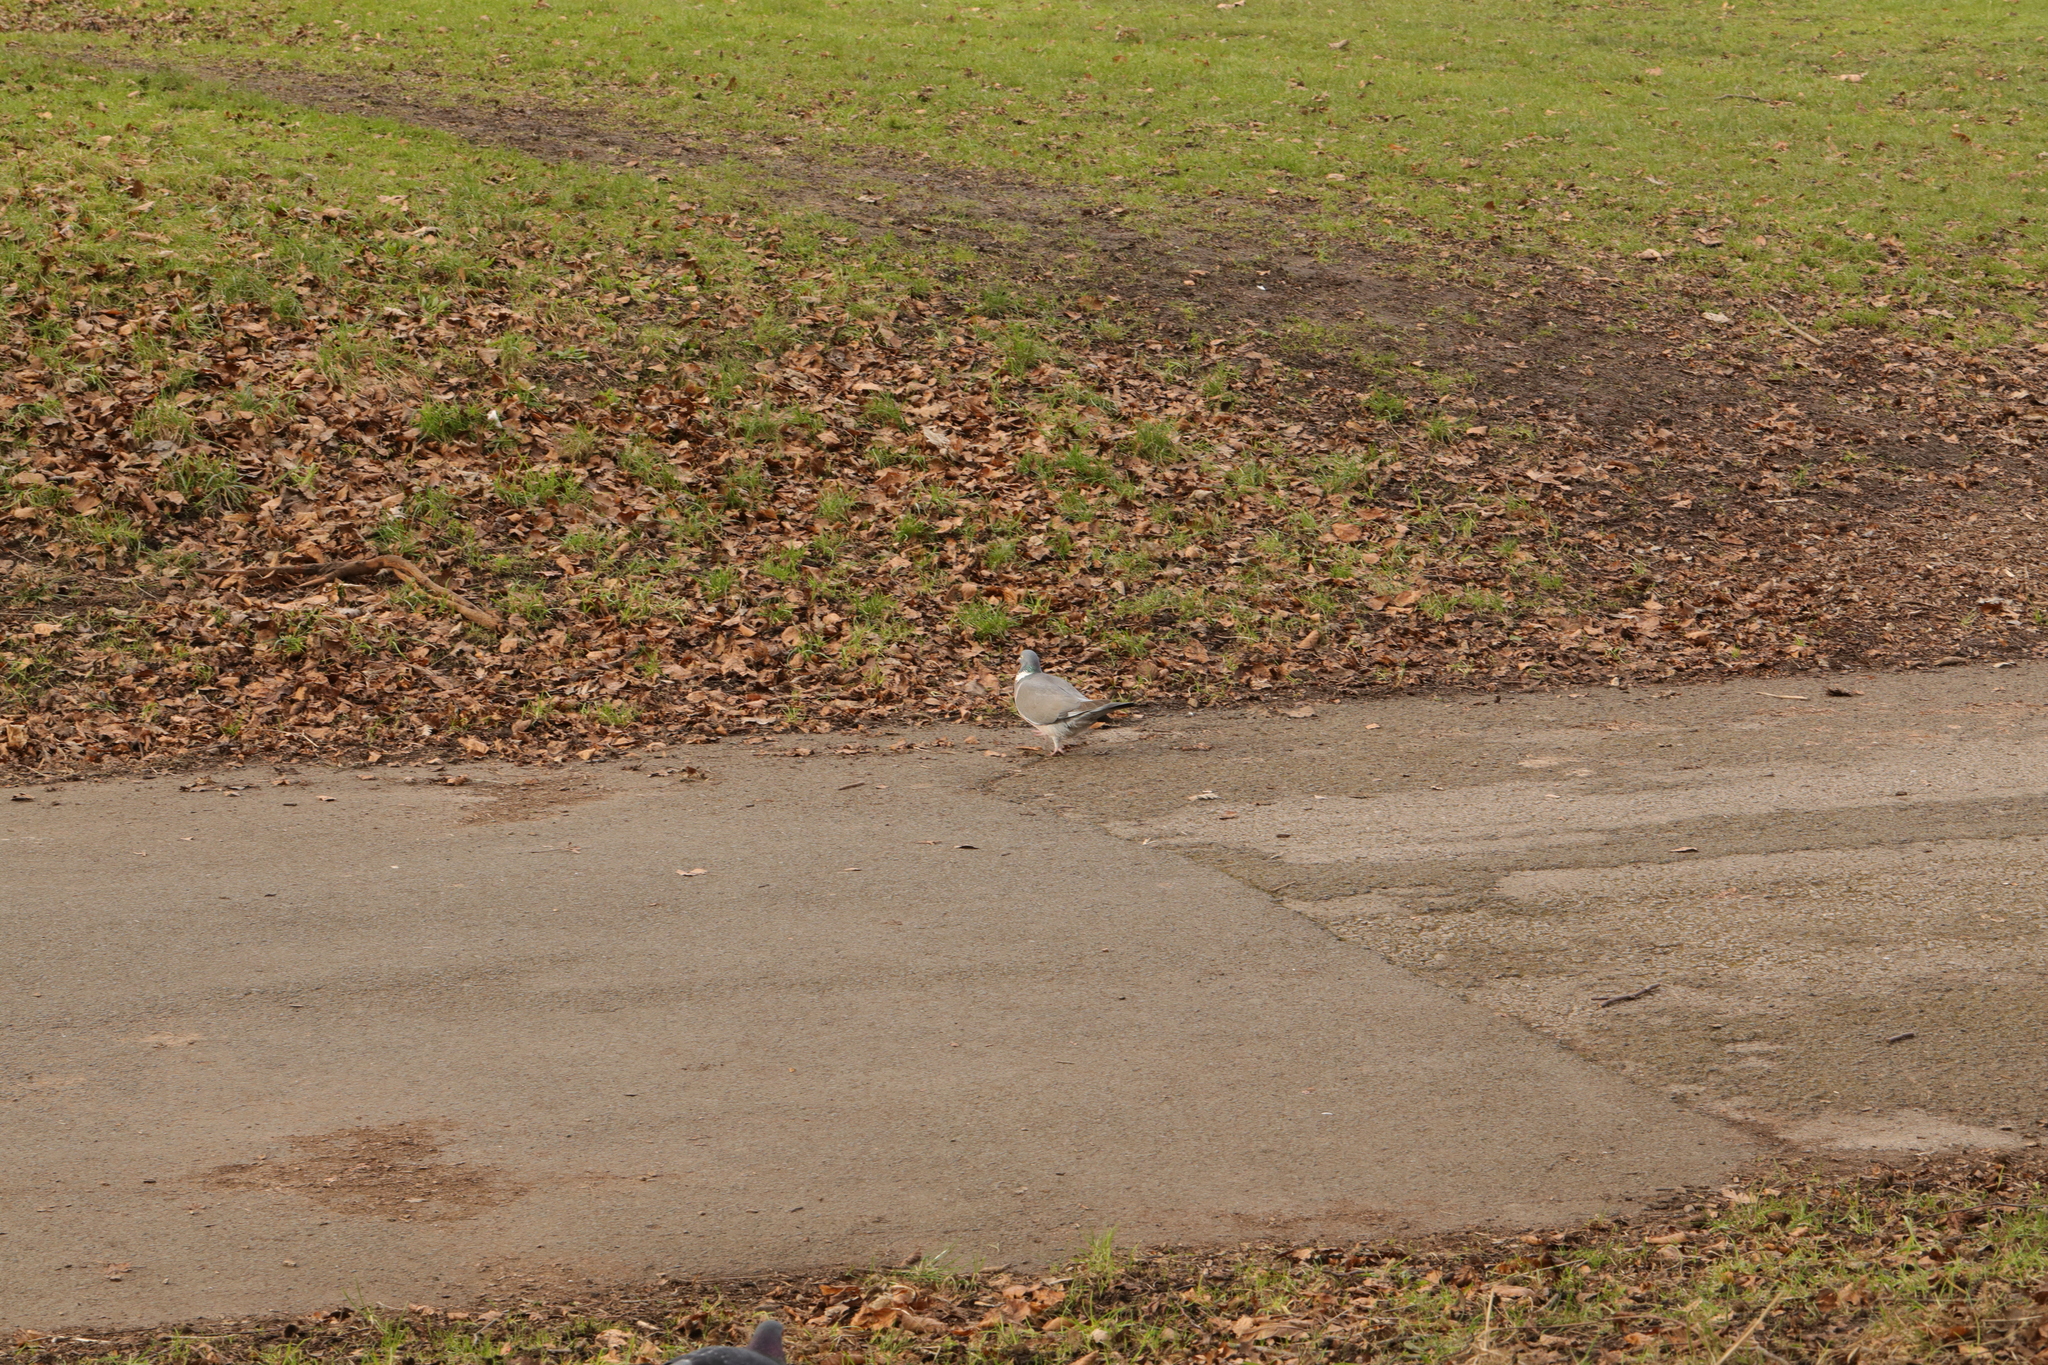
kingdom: Animalia
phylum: Chordata
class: Aves
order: Columbiformes
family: Columbidae
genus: Columba
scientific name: Columba palumbus
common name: Common wood pigeon
